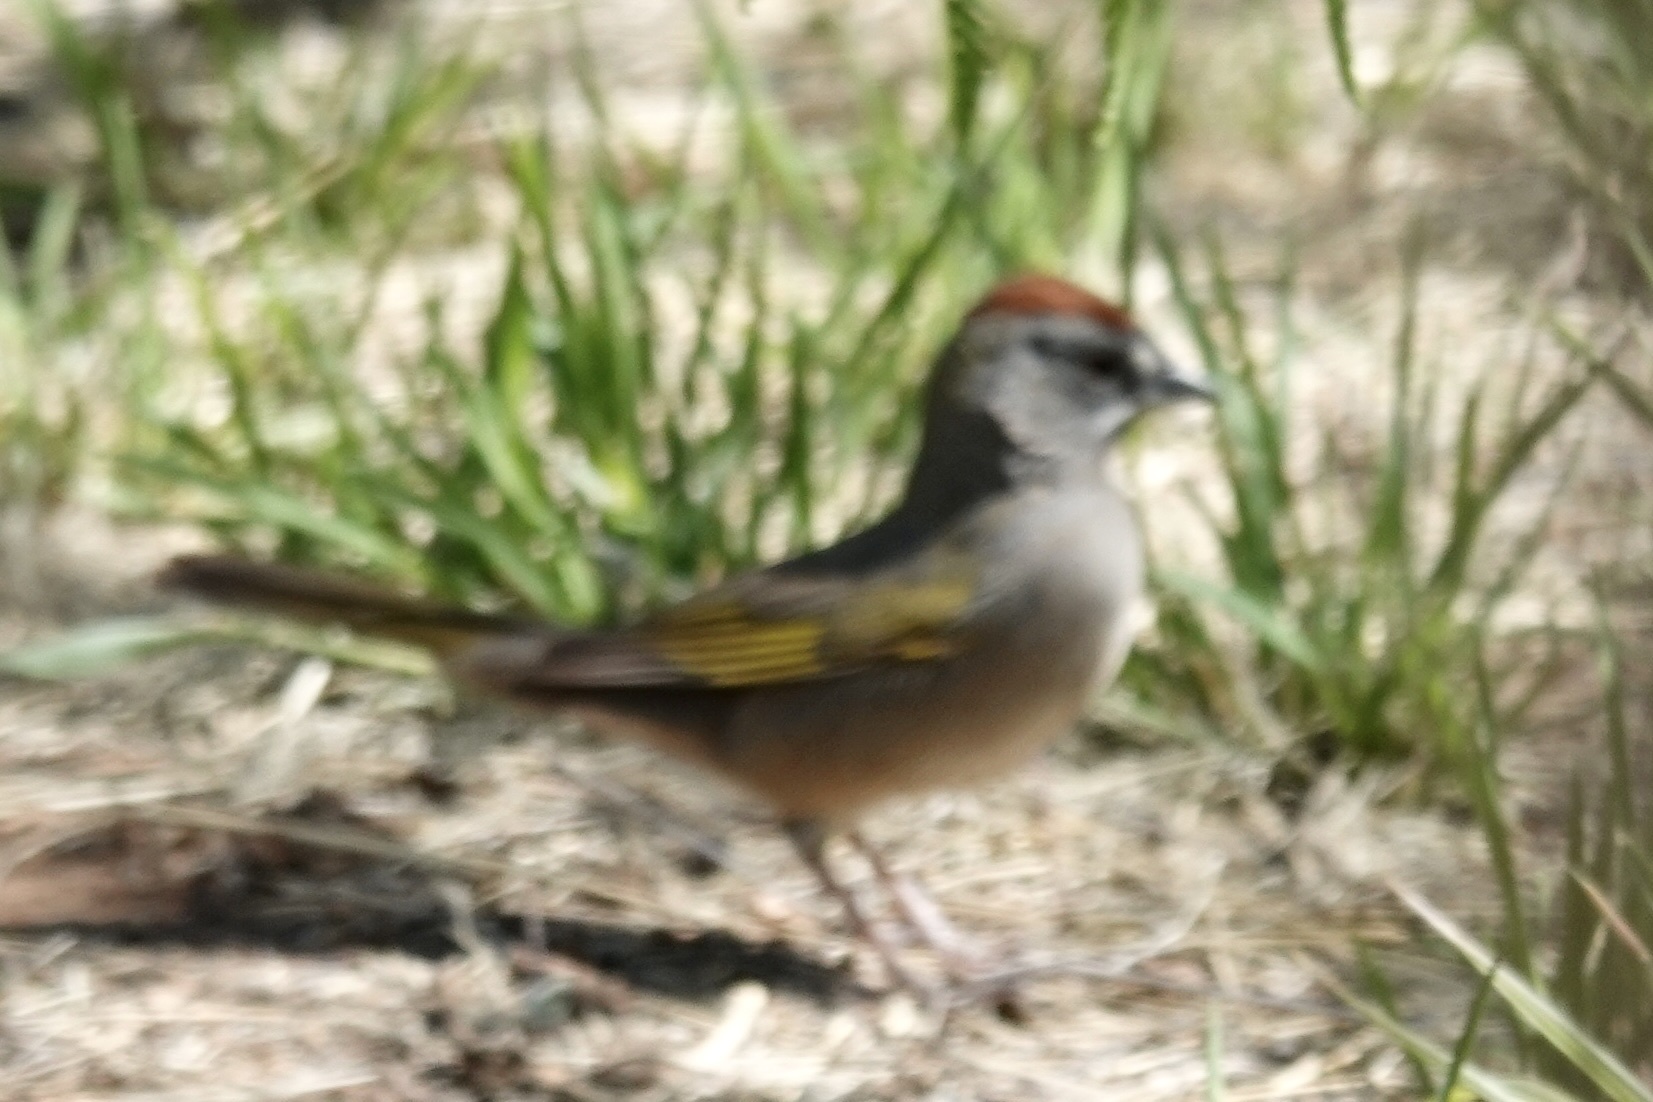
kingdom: Animalia
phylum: Chordata
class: Aves
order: Passeriformes
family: Passerellidae
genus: Pipilo
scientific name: Pipilo chlorurus
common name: Green-tailed towhee
